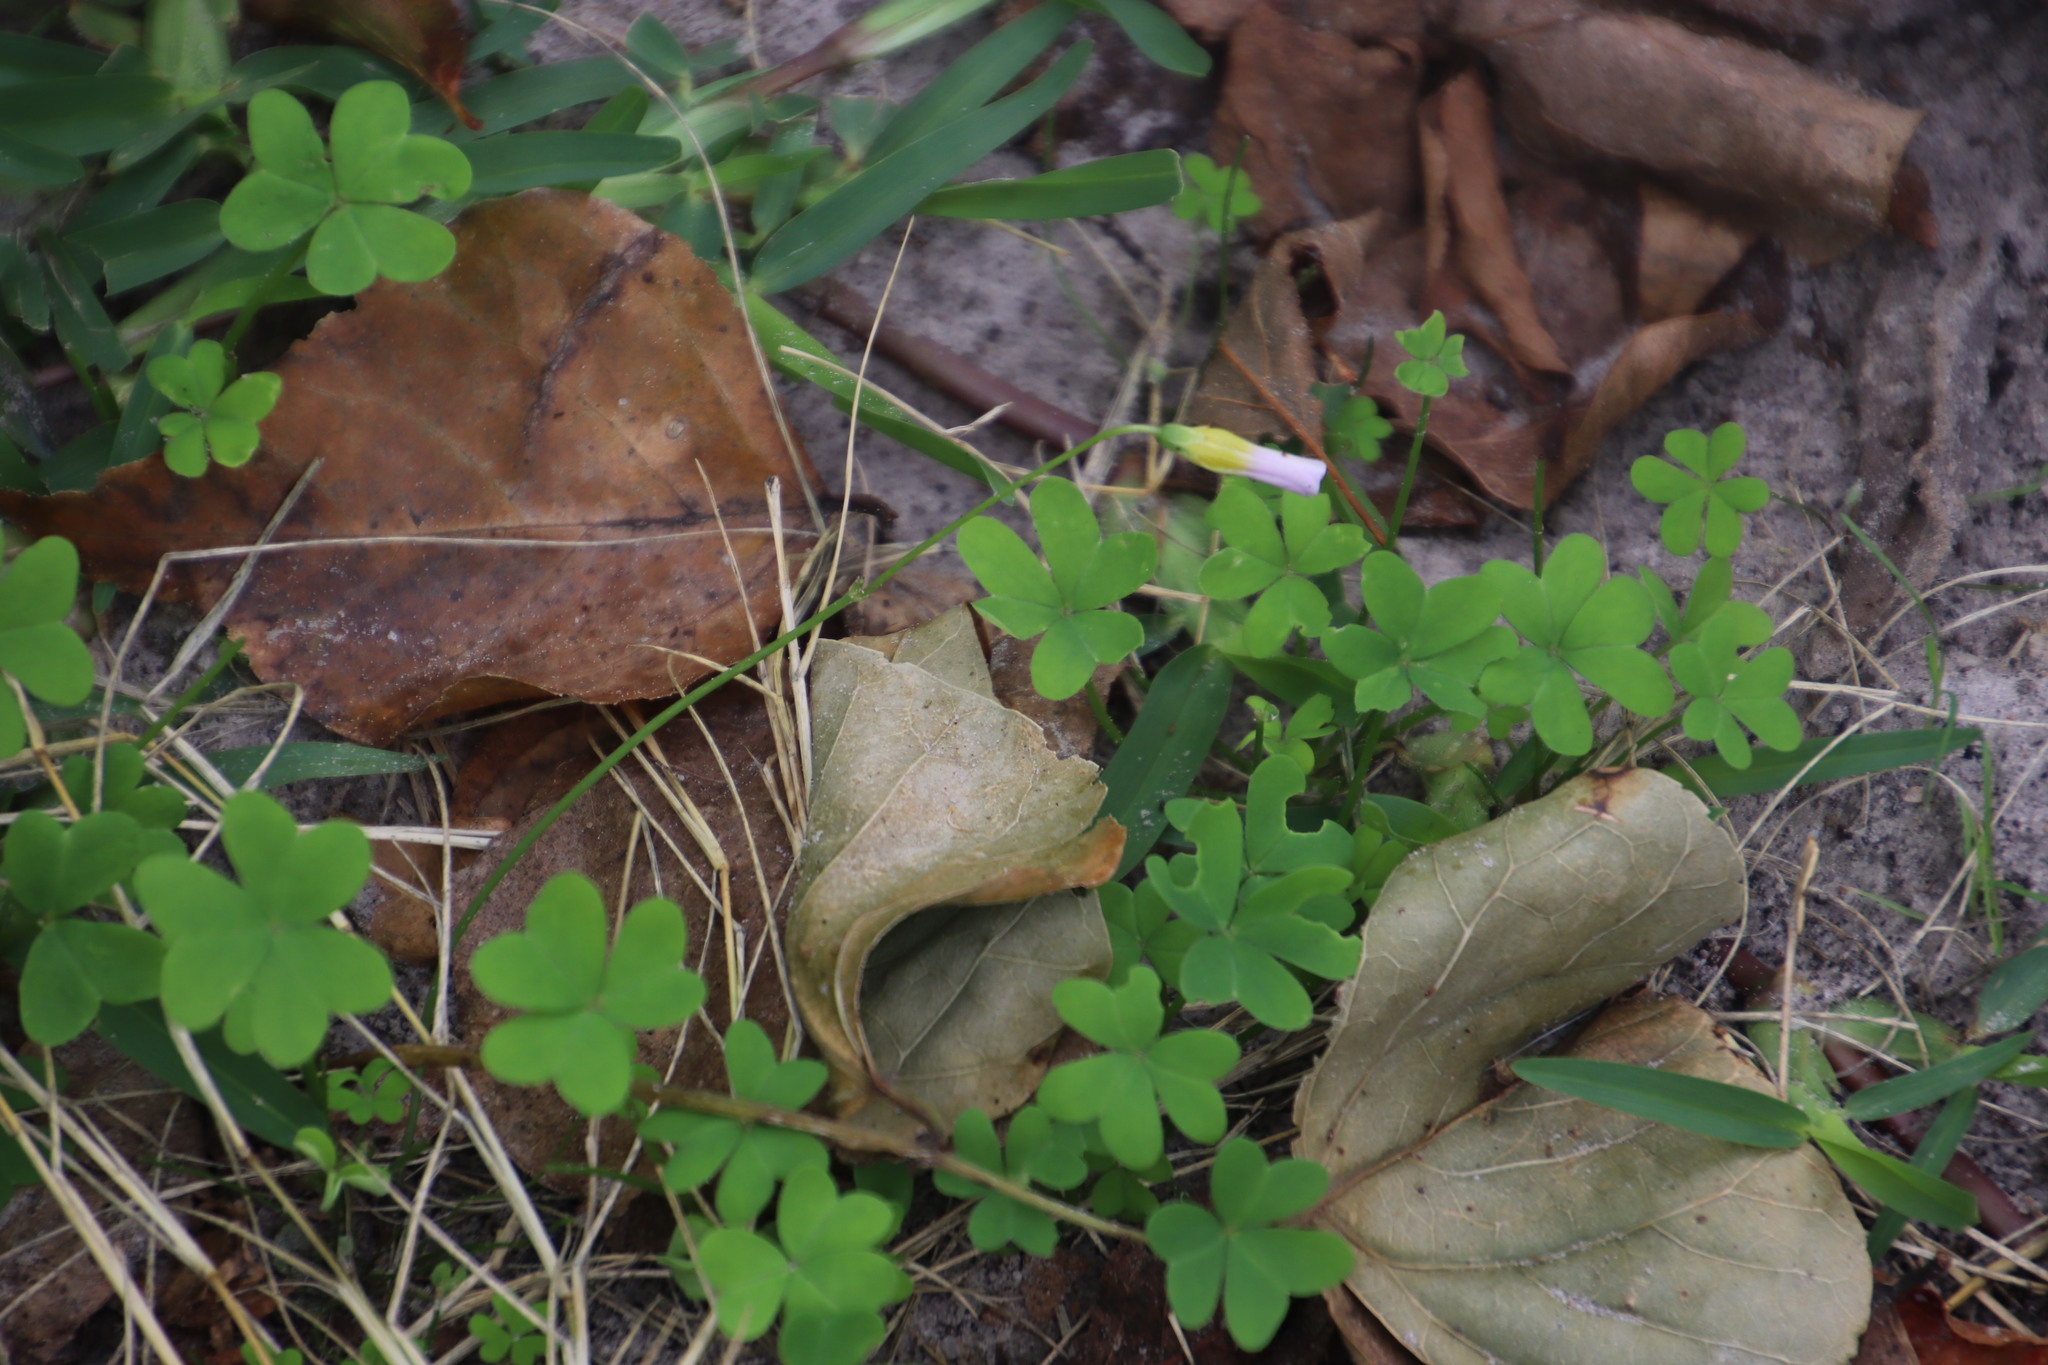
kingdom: Plantae
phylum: Tracheophyta
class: Magnoliopsida
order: Oxalidales
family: Oxalidaceae
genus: Oxalis
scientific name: Oxalis caprina
